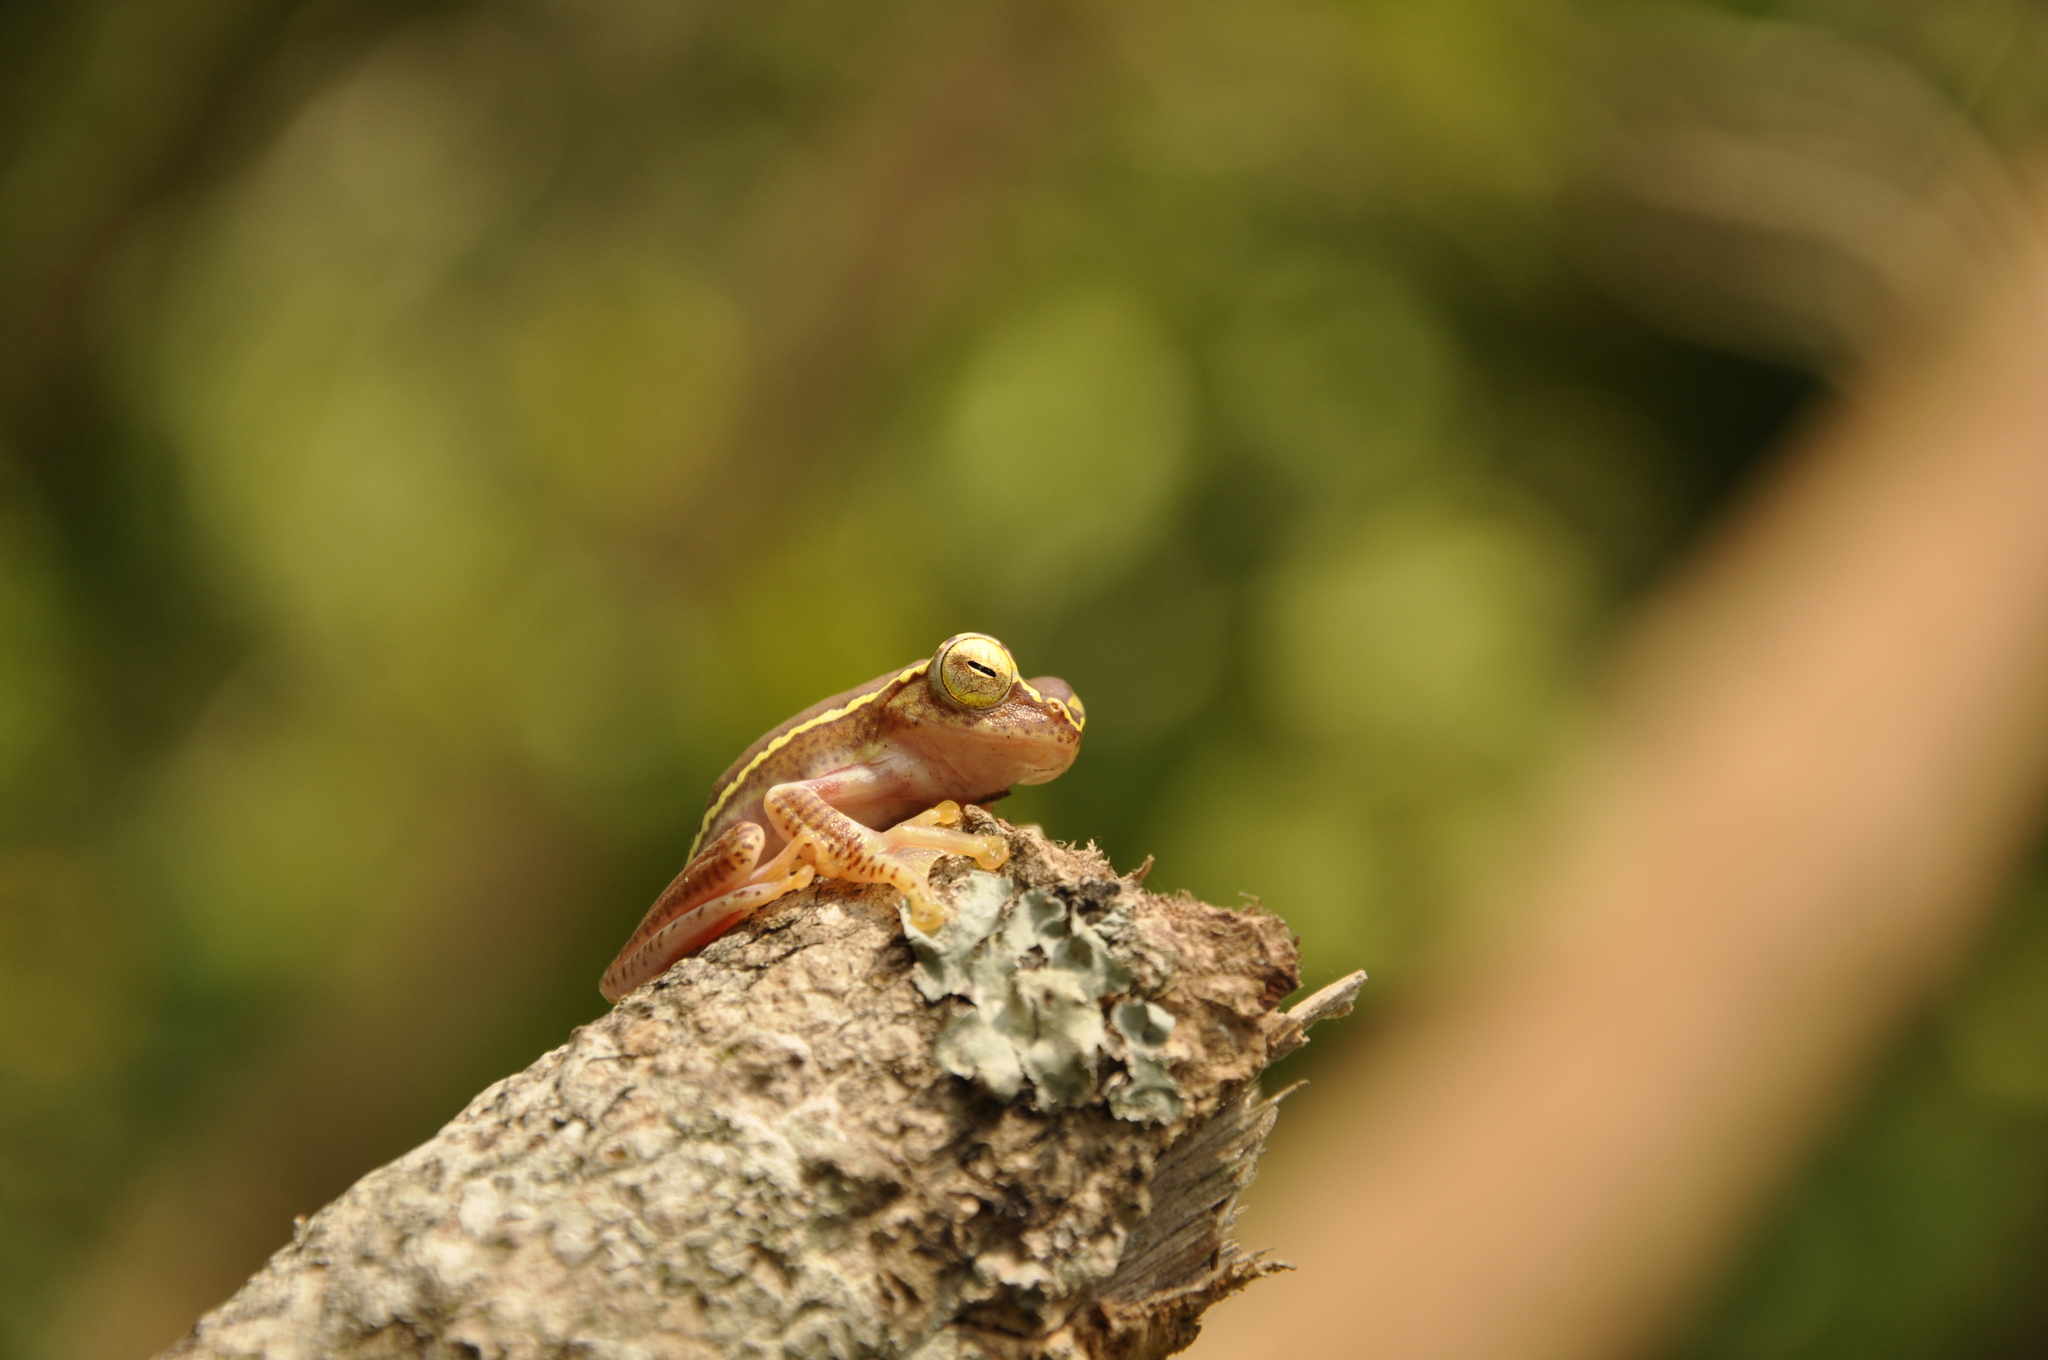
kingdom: Animalia
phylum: Chordata
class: Amphibia
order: Anura
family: Rhacophoridae
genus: Rhacophorus
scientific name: Rhacophorus lateralis
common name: Boulenger's tree frog
